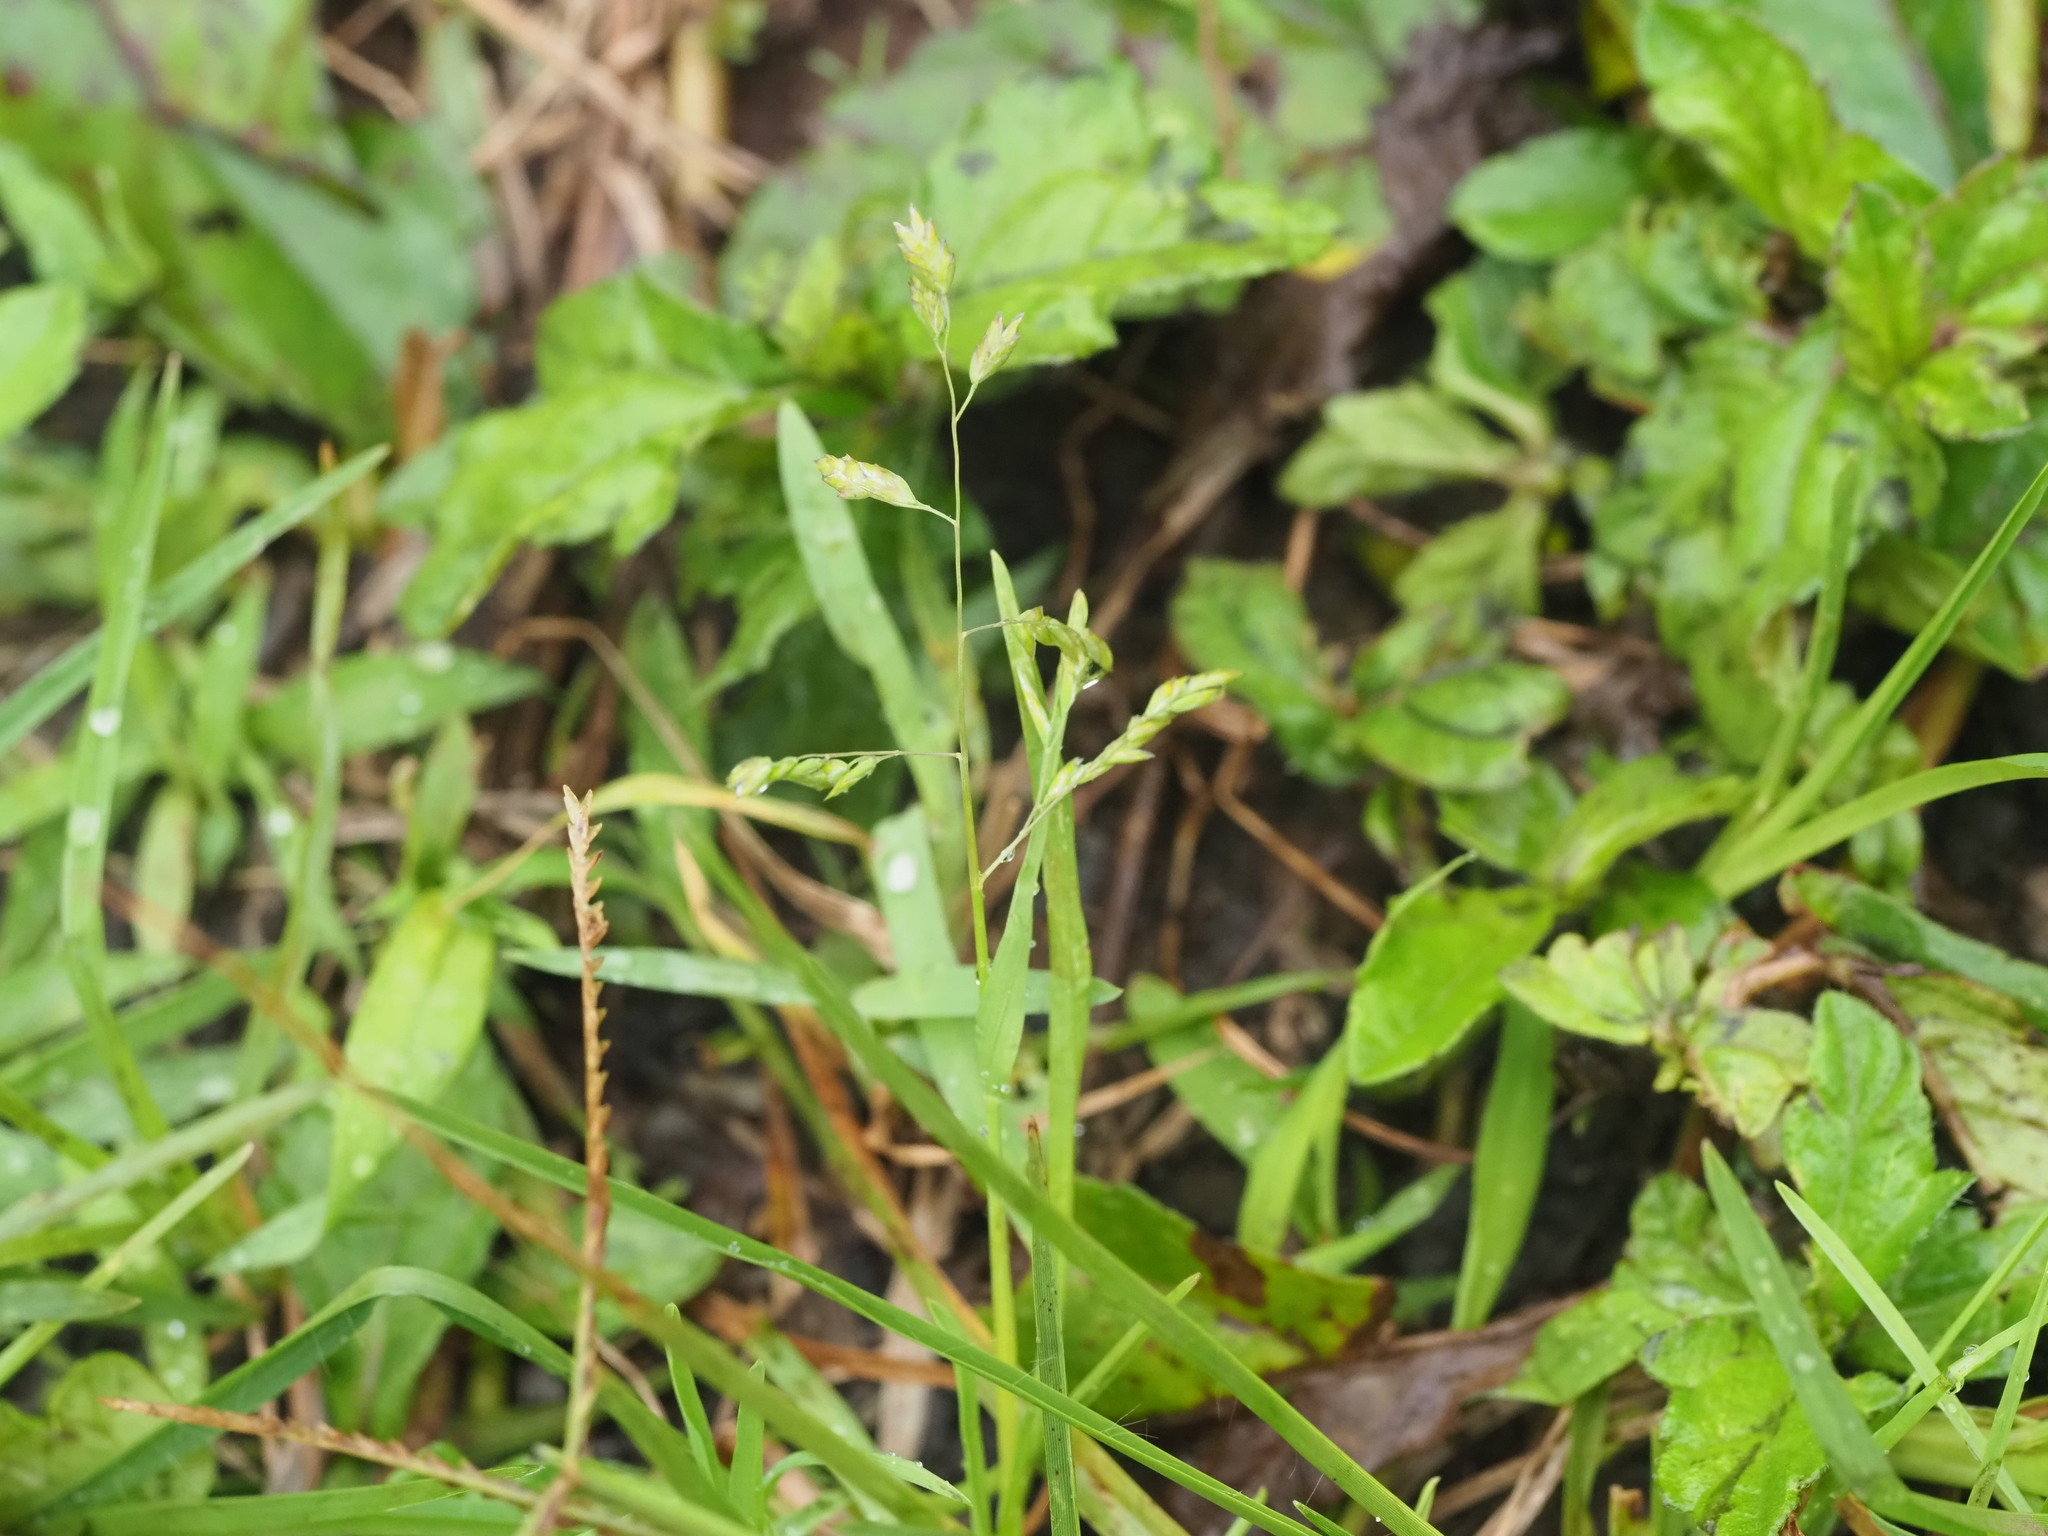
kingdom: Plantae
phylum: Tracheophyta
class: Liliopsida
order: Poales
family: Poaceae
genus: Poa
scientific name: Poa annua
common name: Annual bluegrass
